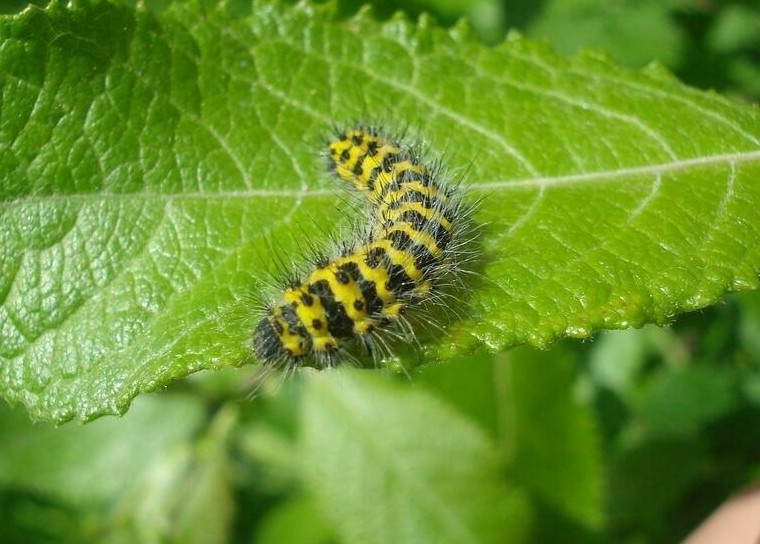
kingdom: Animalia
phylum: Arthropoda
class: Insecta
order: Lepidoptera
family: Saturniidae
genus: Saturnia
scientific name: Saturnia pavonia
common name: Emperor moth
